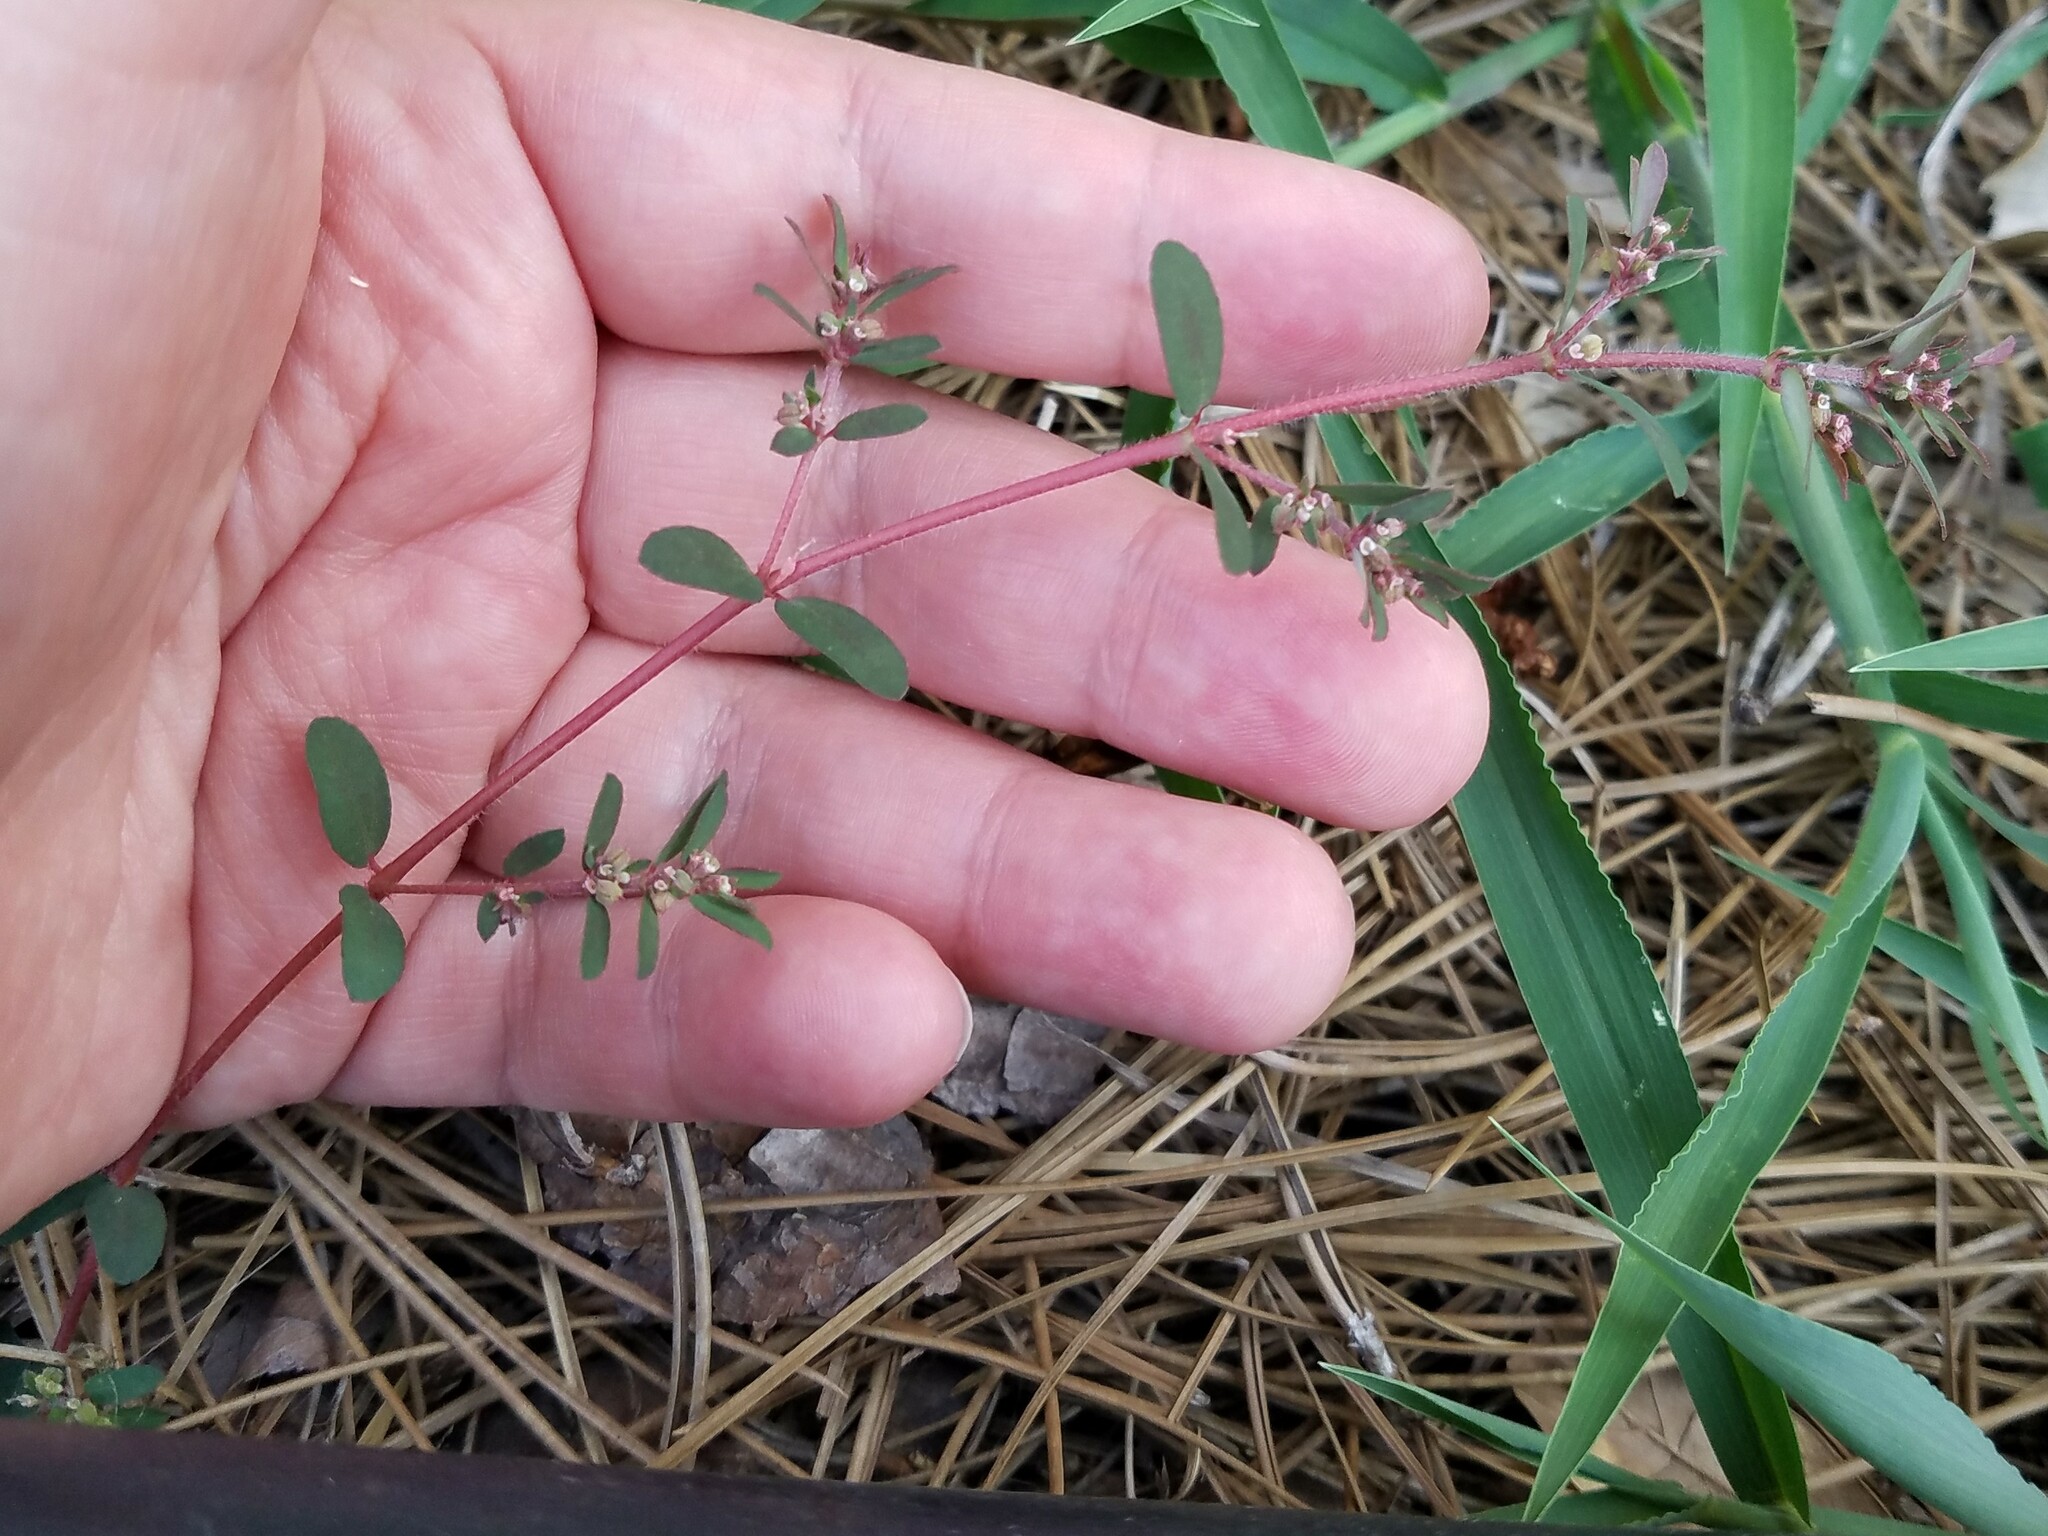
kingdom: Plantae
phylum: Tracheophyta
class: Magnoliopsida
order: Malpighiales
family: Euphorbiaceae
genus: Euphorbia
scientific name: Euphorbia maculata
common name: Spotted spurge
